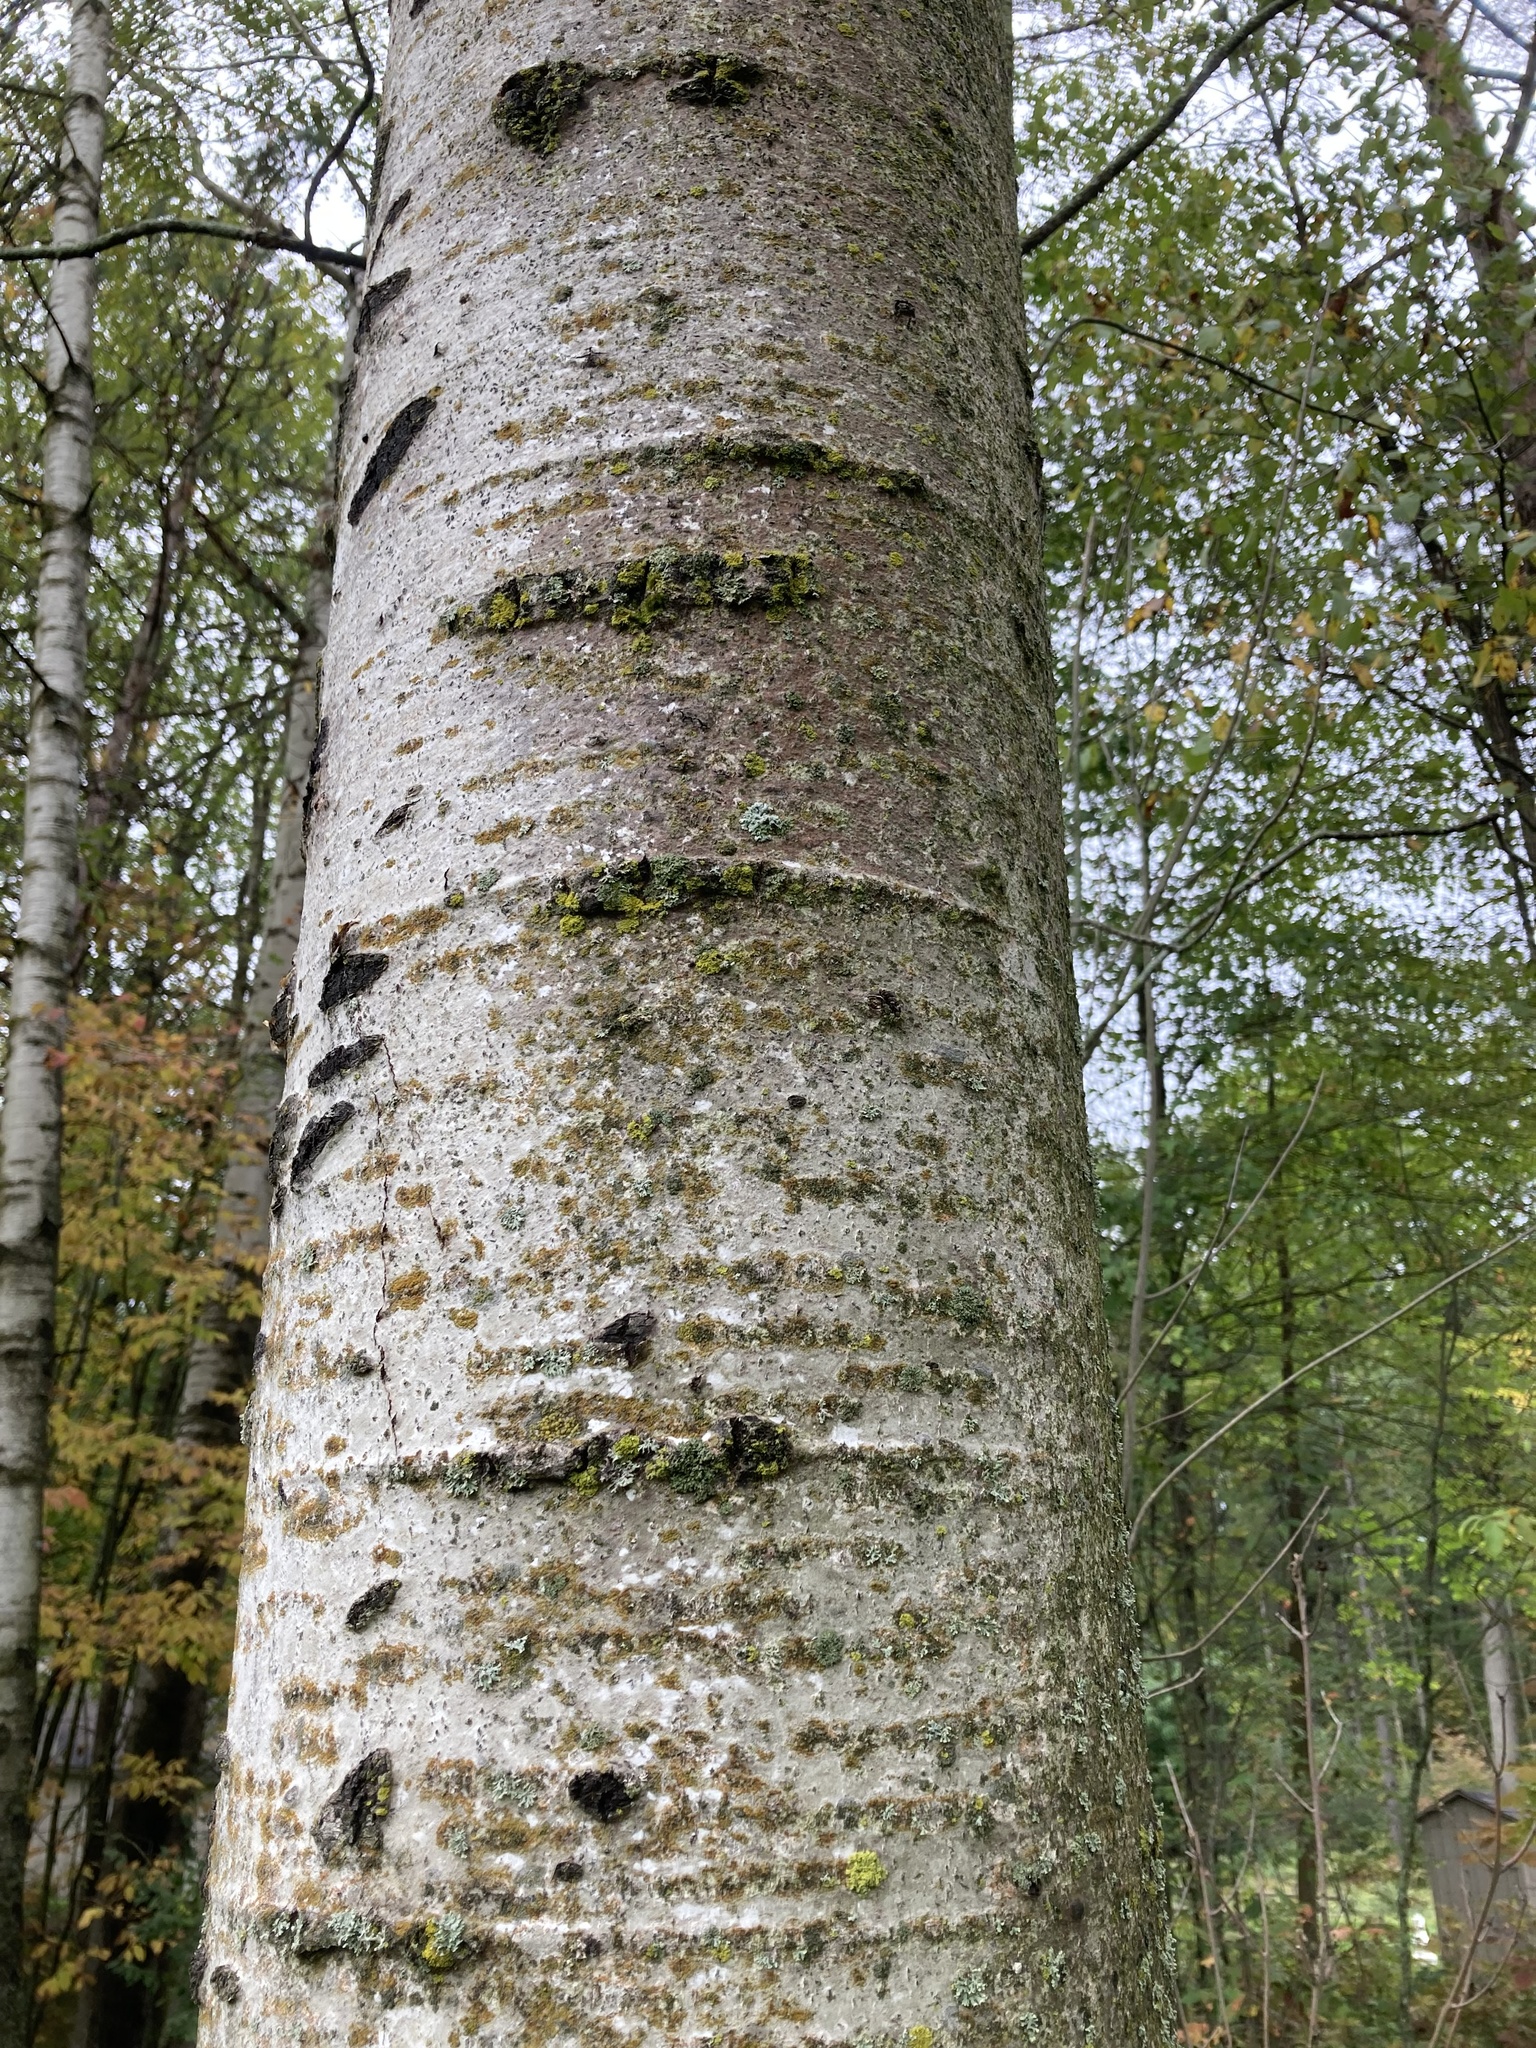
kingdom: Plantae
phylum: Tracheophyta
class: Magnoliopsida
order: Malpighiales
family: Salicaceae
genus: Populus
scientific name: Populus tremuloides
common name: Quaking aspen
